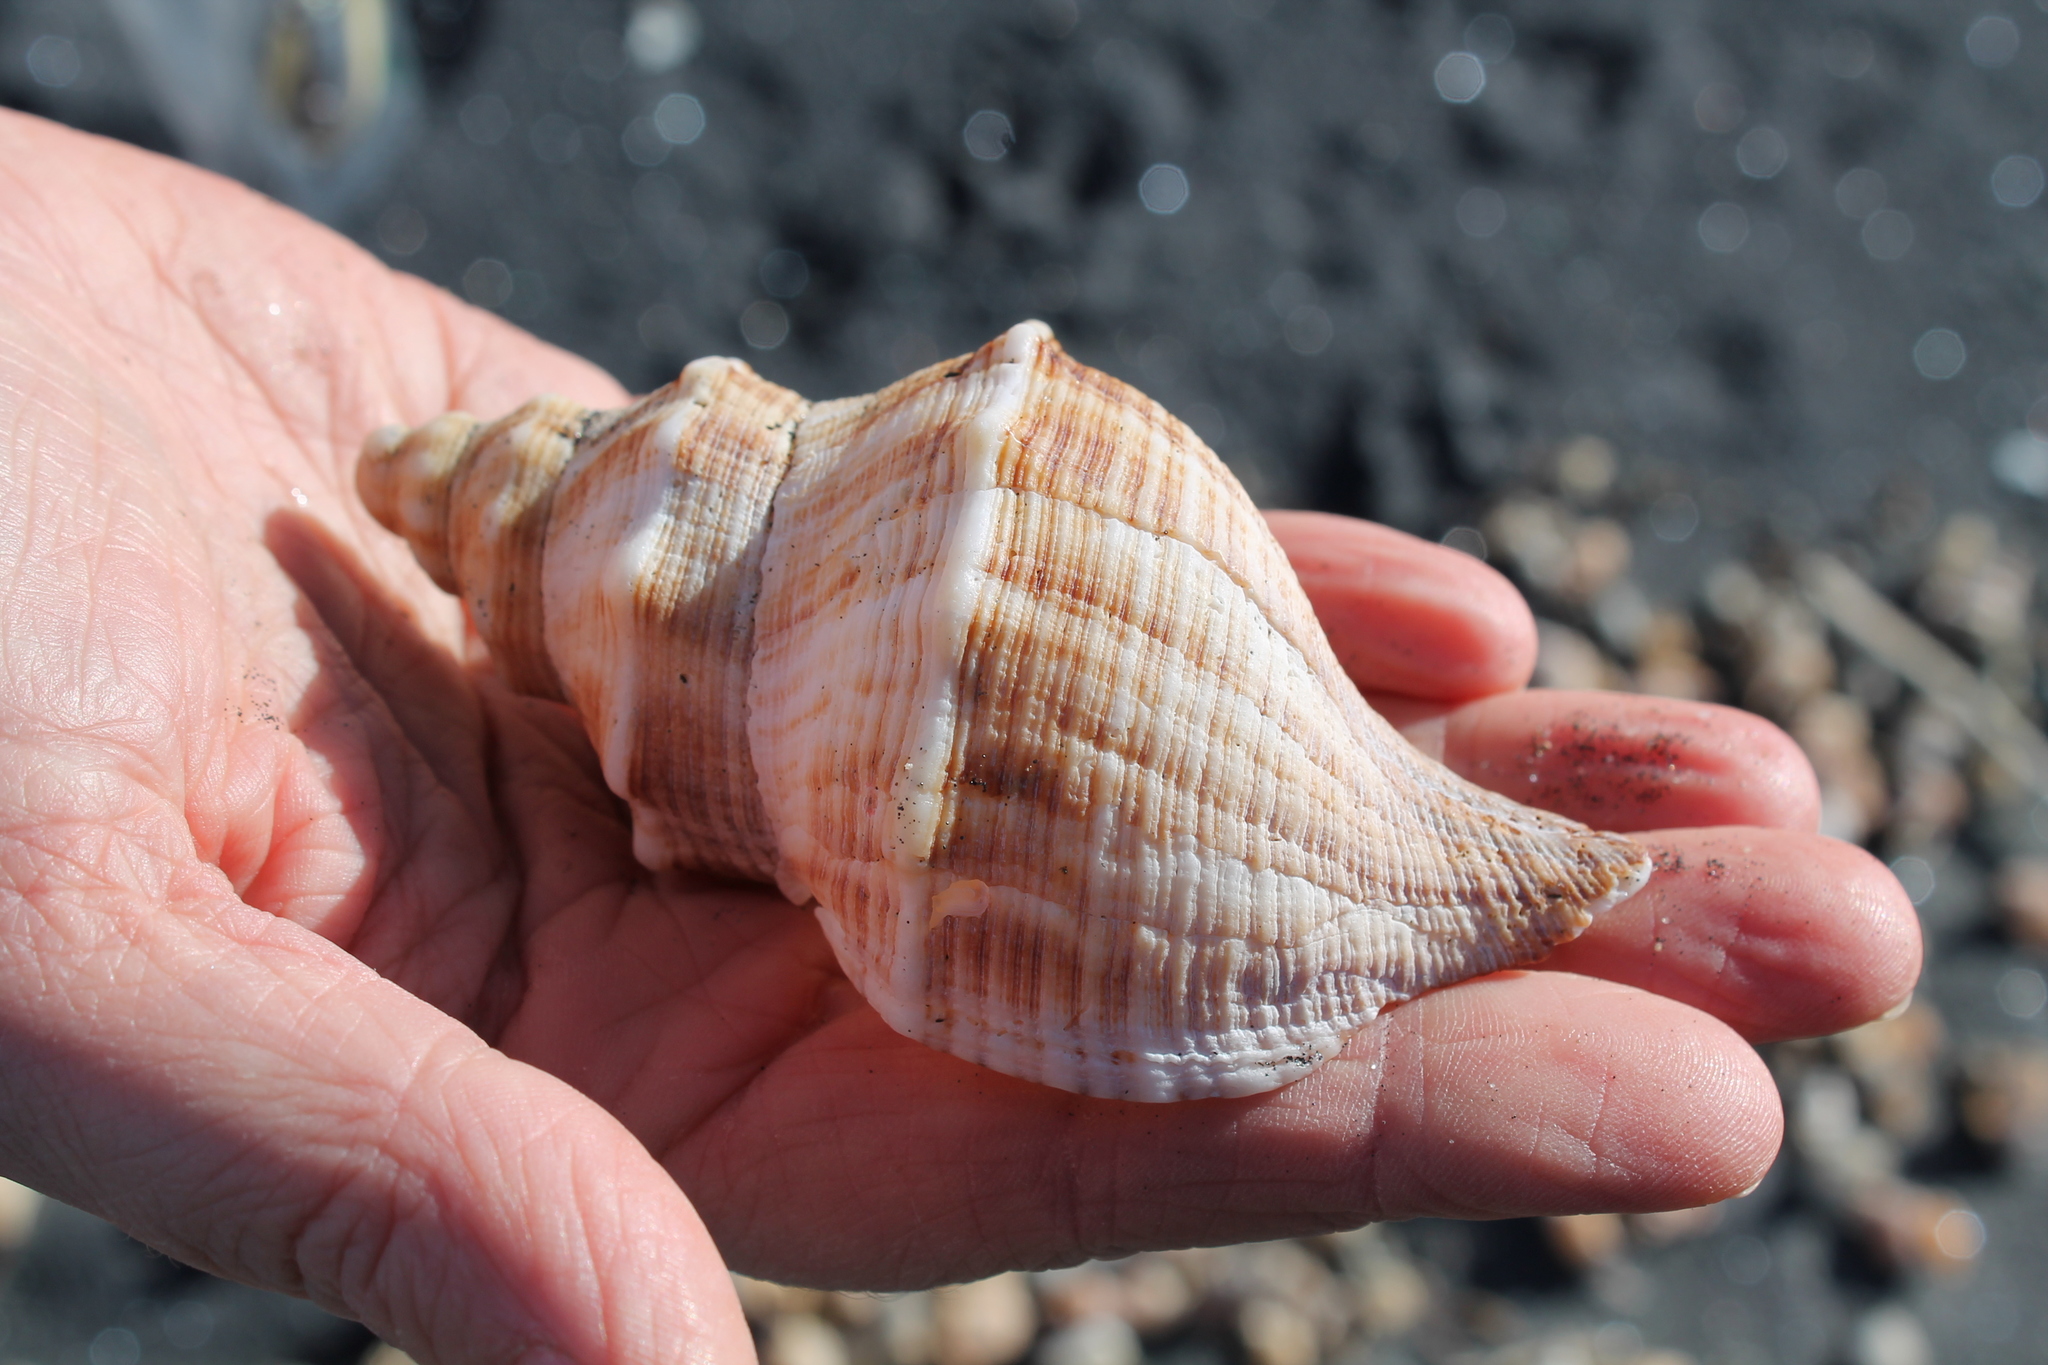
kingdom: Animalia
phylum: Mollusca
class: Gastropoda
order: Neogastropoda
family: Austrosiphonidae
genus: Penion
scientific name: Penion cuvierianus
